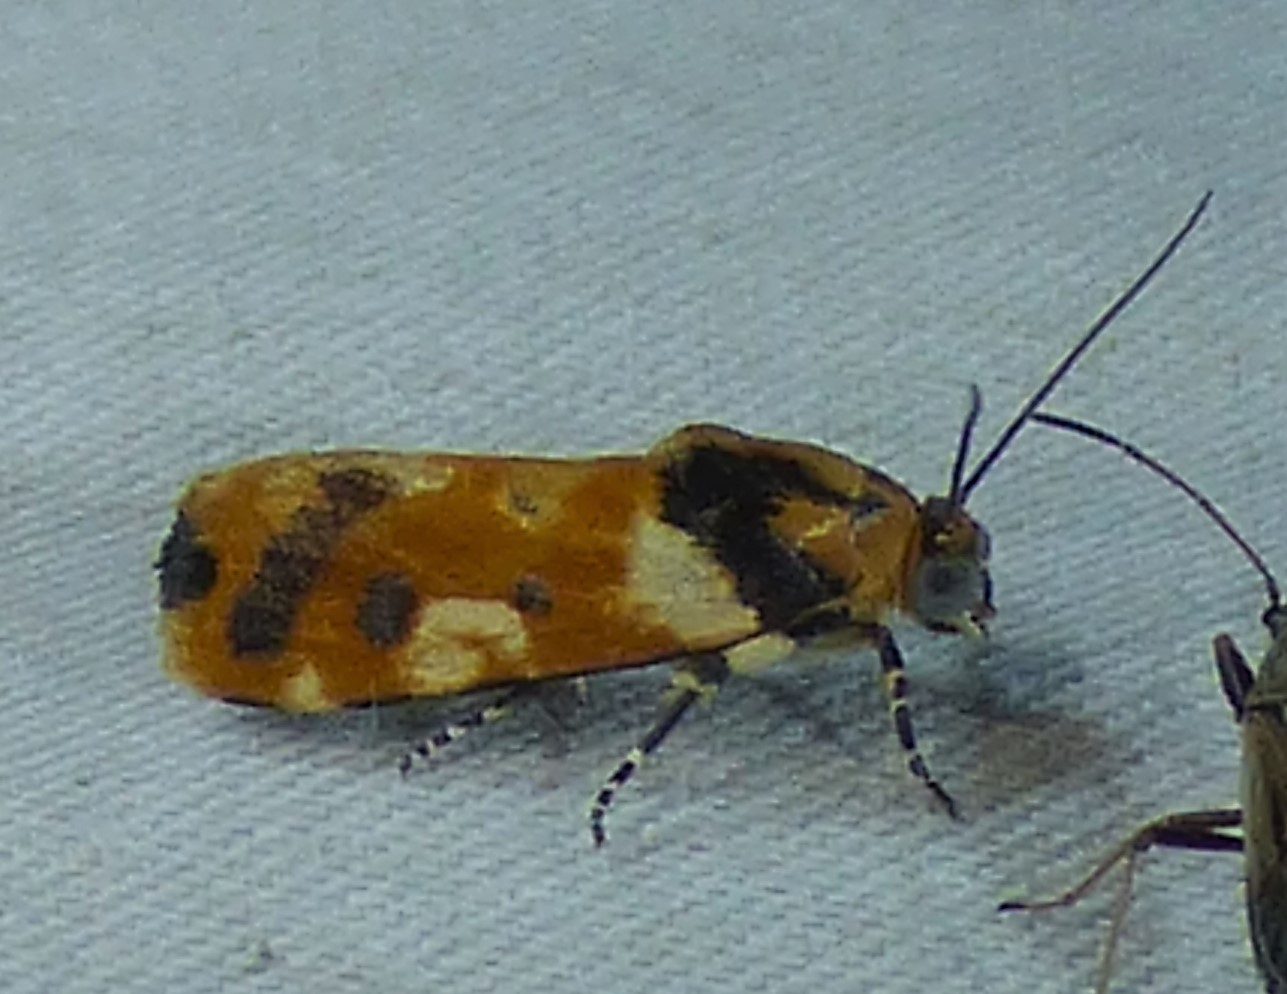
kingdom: Animalia
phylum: Arthropoda
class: Insecta
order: Lepidoptera
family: Noctuidae
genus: Acontia
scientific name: Acontia dama
